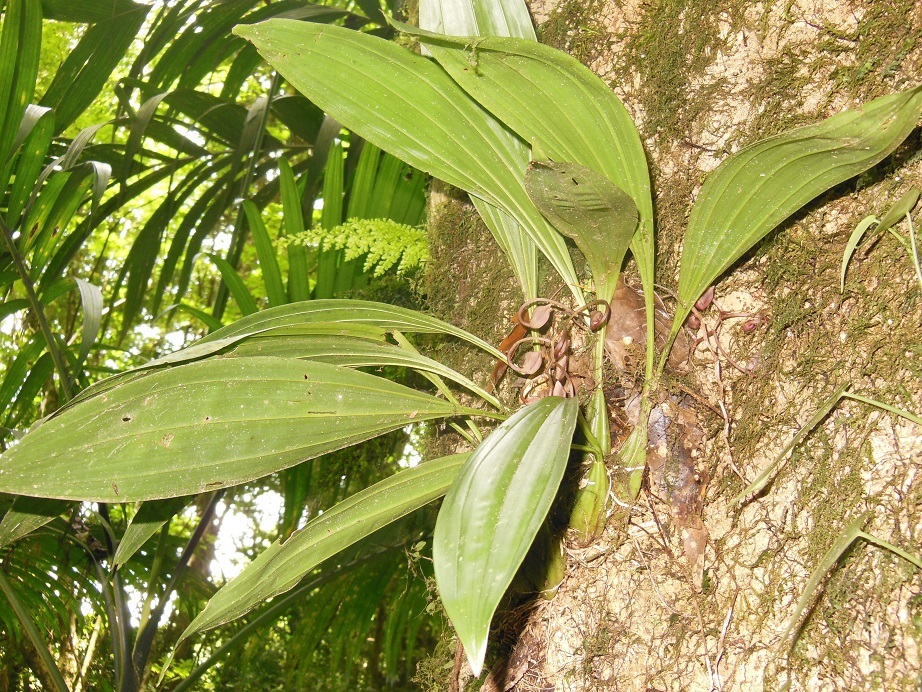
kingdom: Plantae
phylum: Tracheophyta
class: Liliopsida
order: Asparagales
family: Orchidaceae
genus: Gongora
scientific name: Gongora galeata
